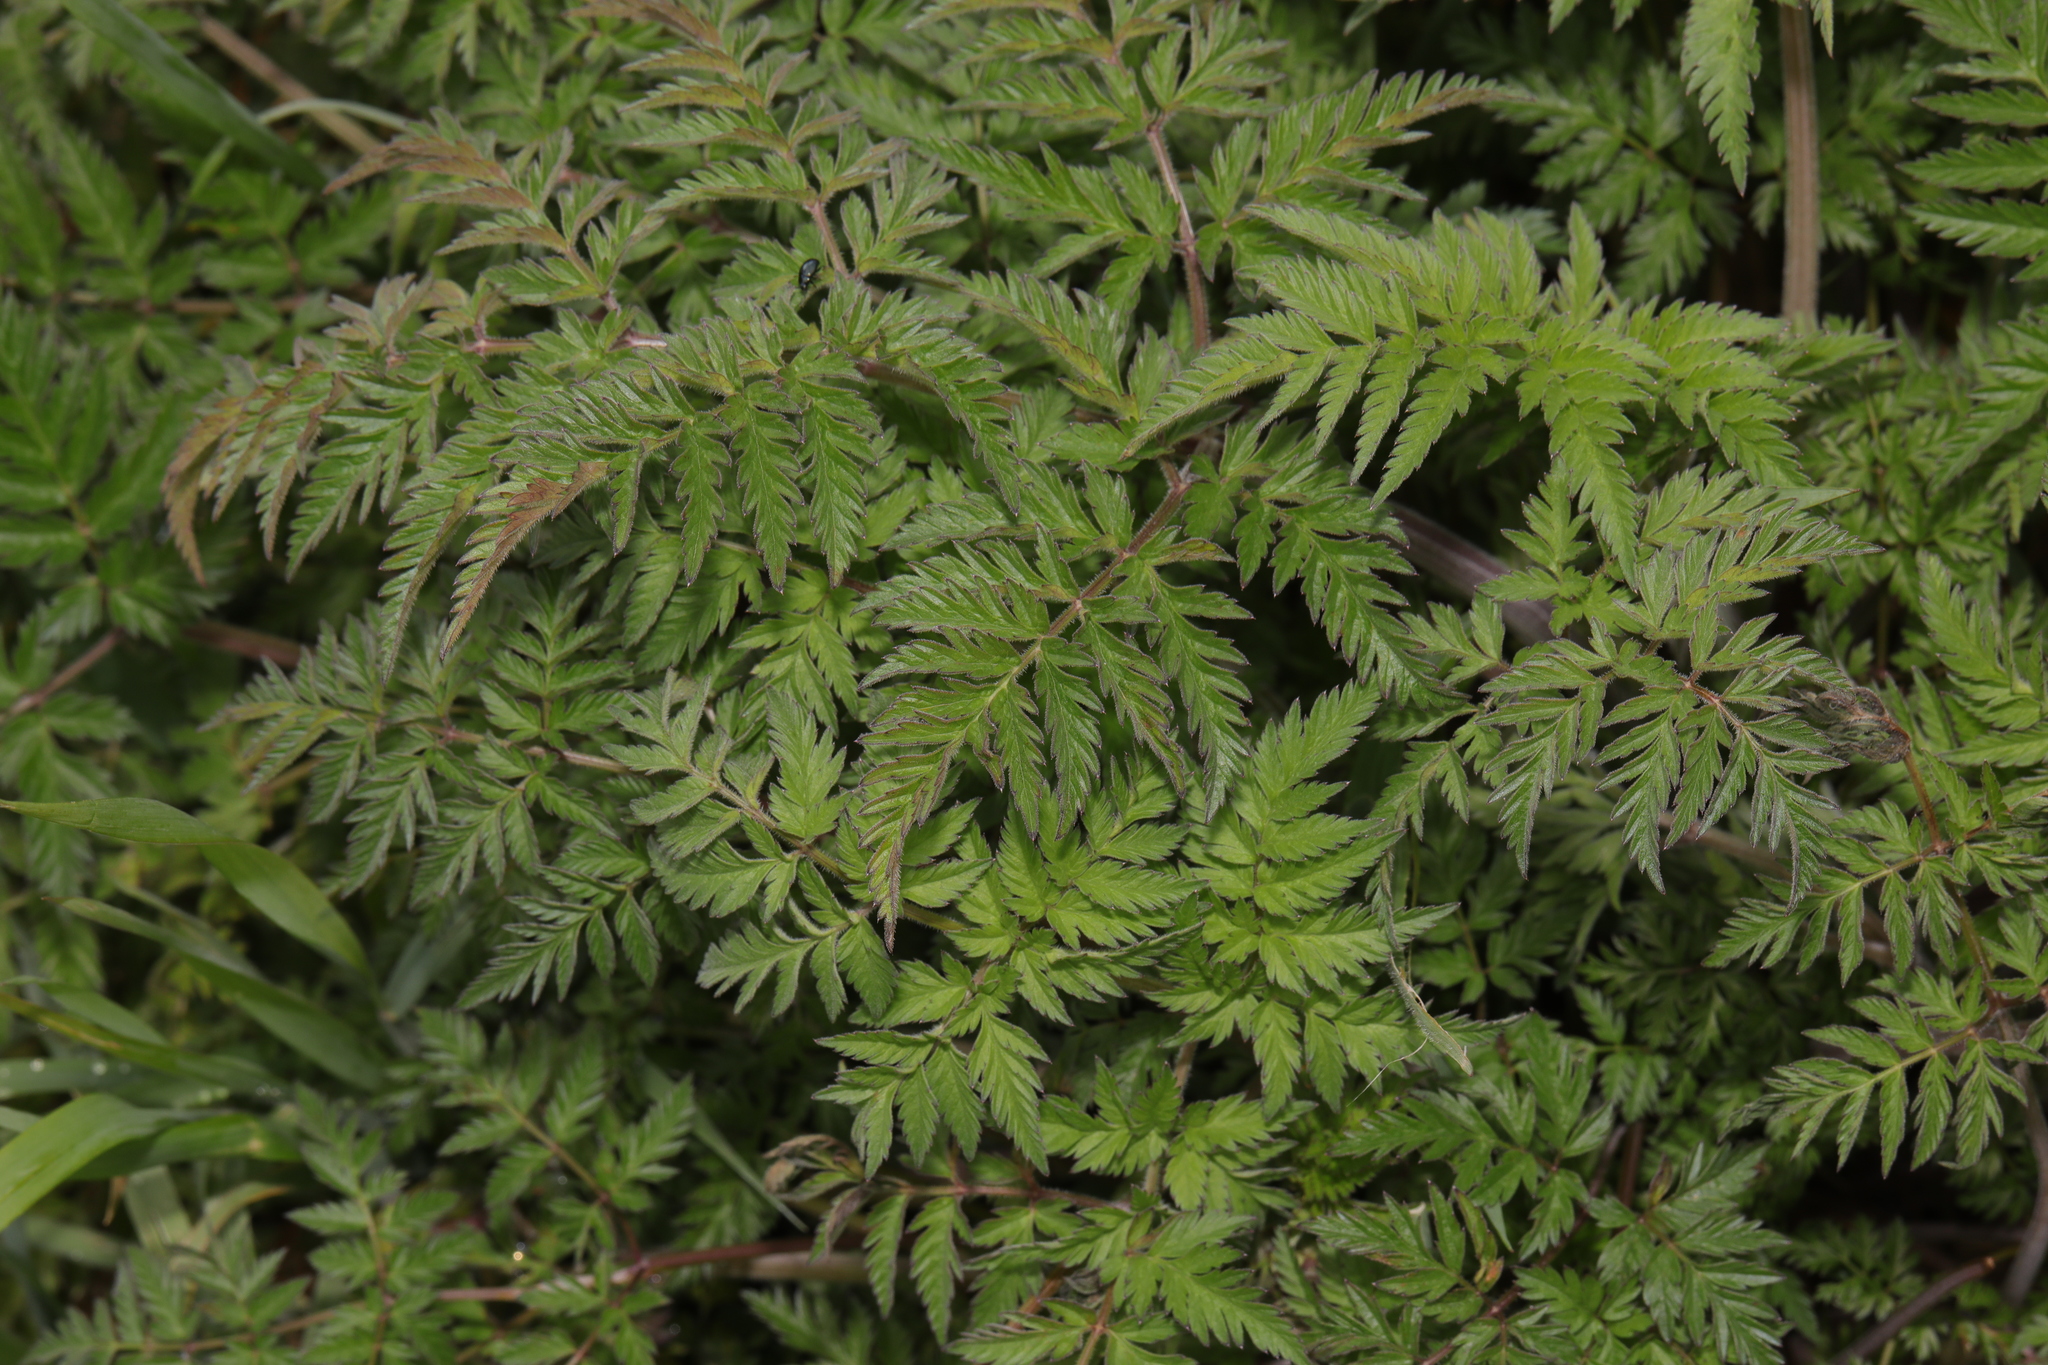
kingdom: Plantae
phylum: Tracheophyta
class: Magnoliopsida
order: Apiales
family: Apiaceae
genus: Anthriscus
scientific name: Anthriscus sylvestris
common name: Cow parsley
